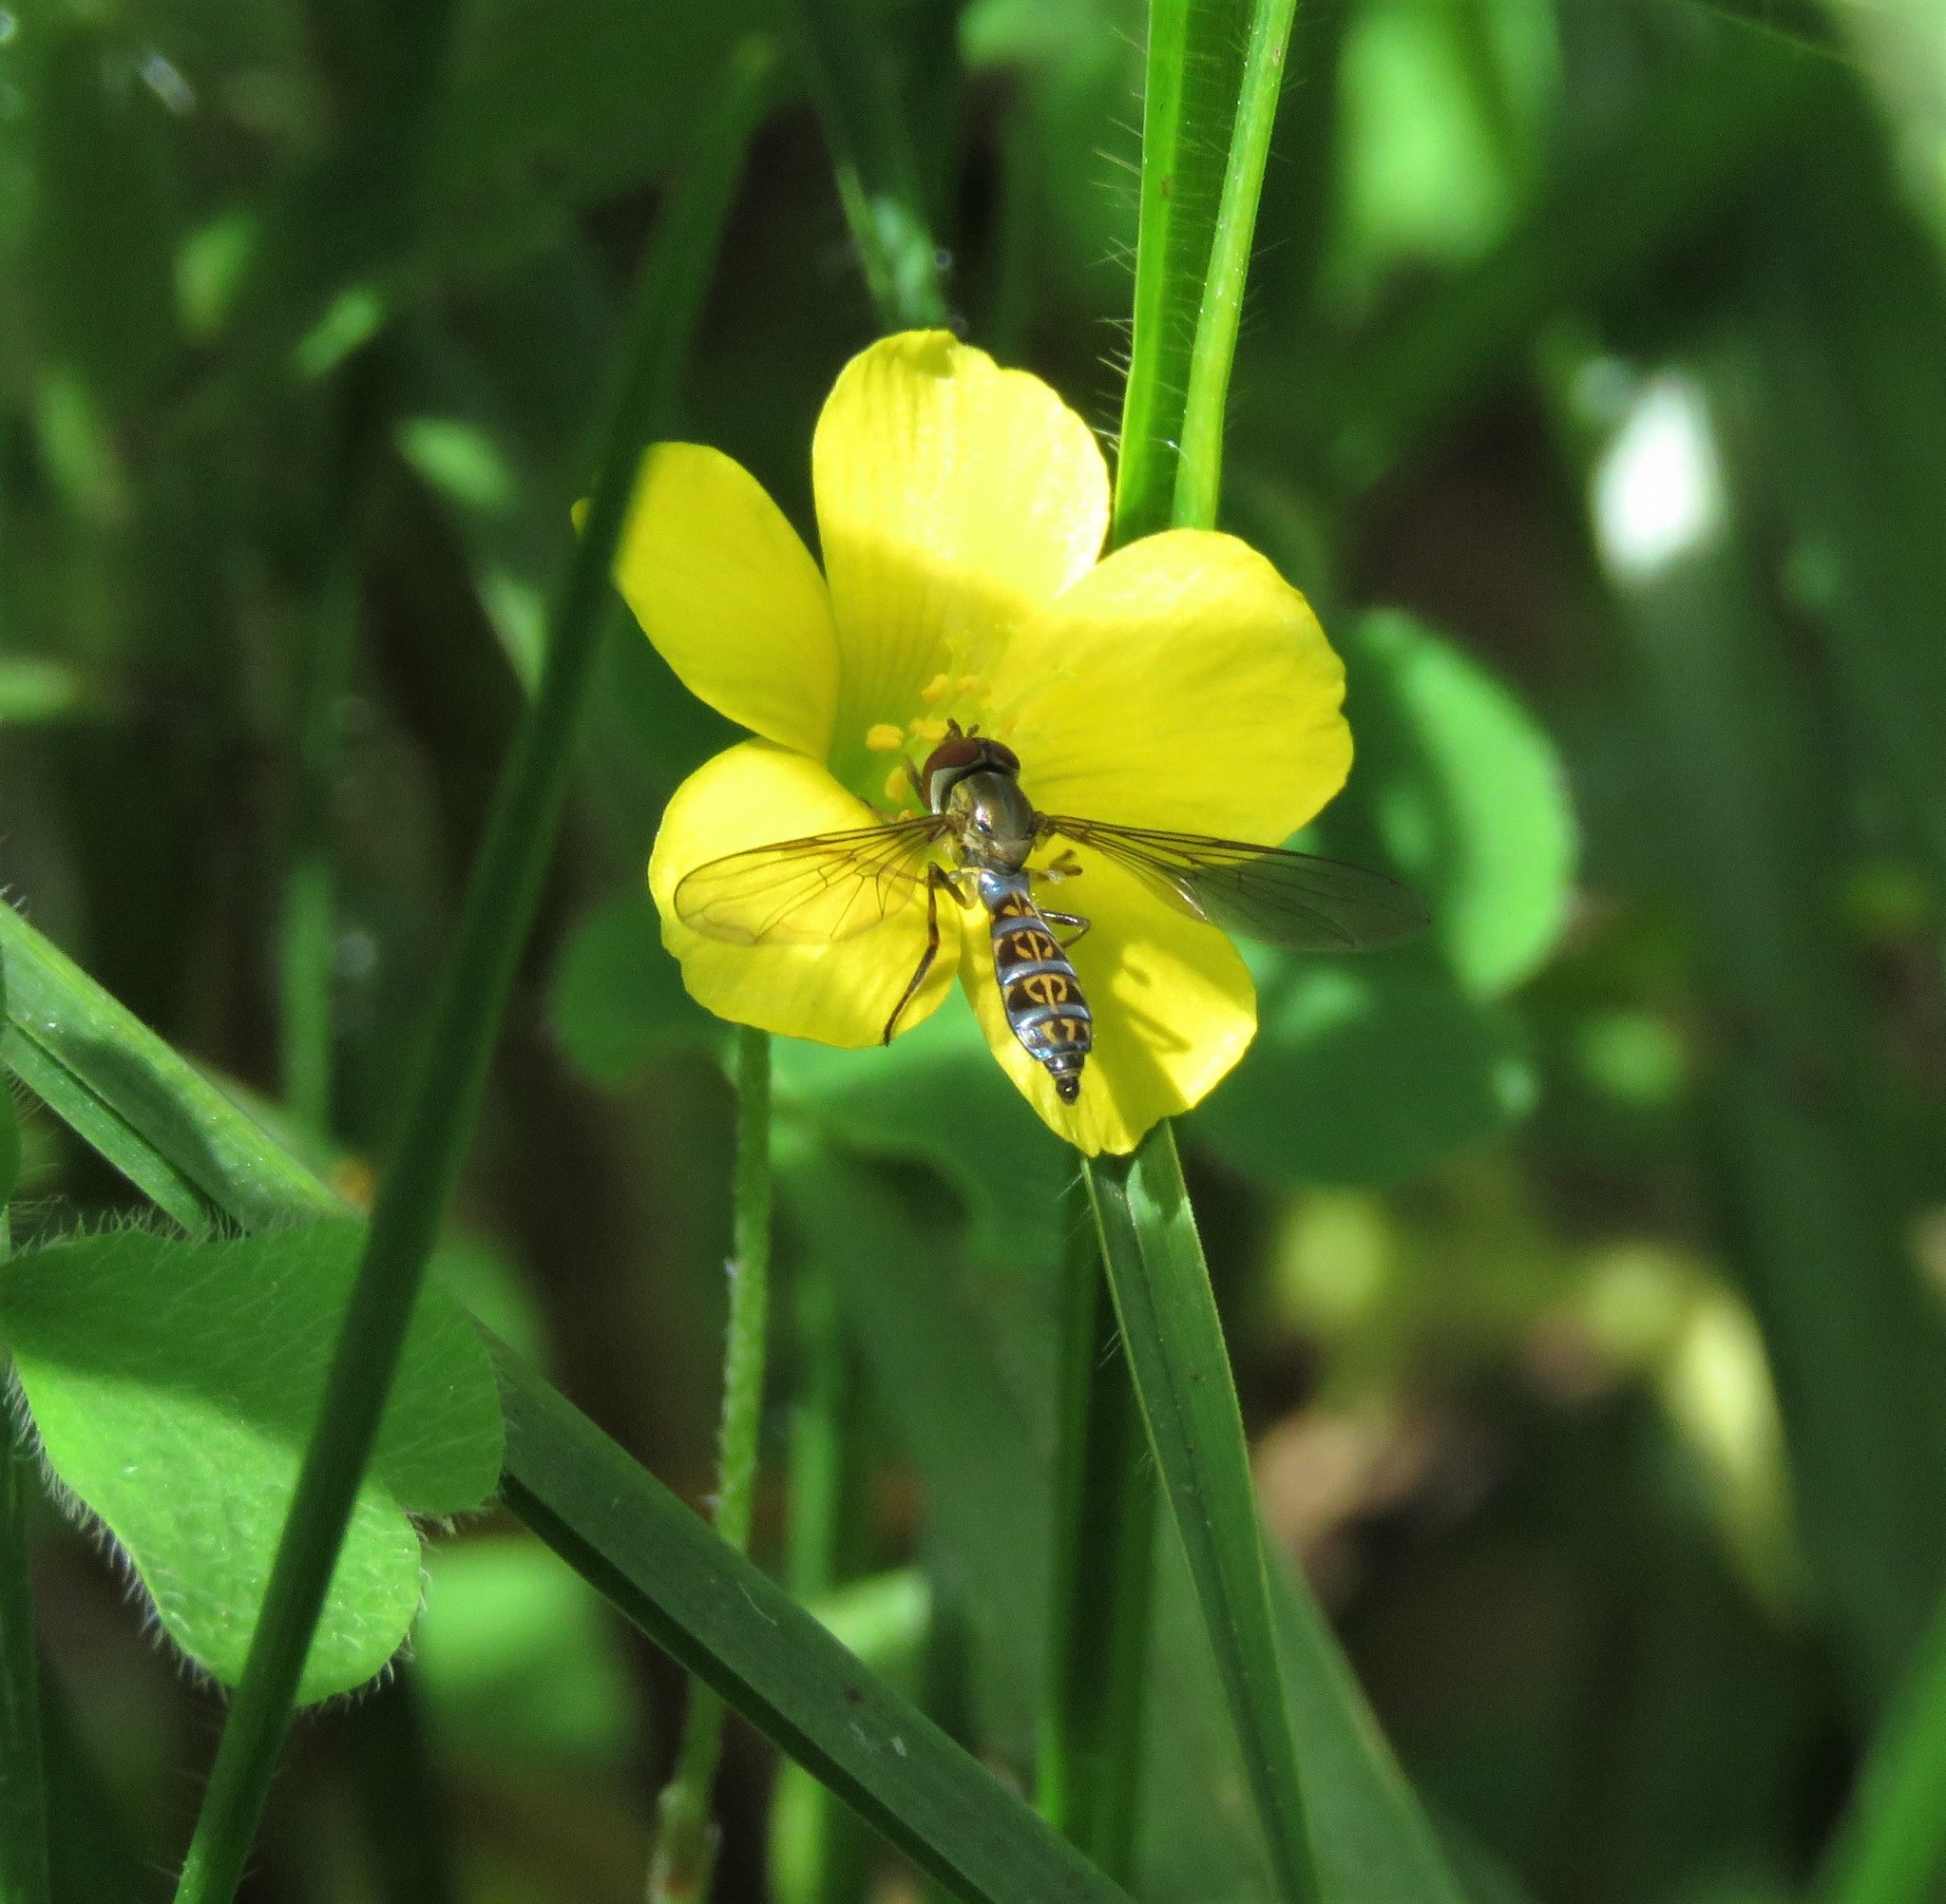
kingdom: Plantae
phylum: Tracheophyta
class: Magnoliopsida
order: Oxalidales
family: Oxalidaceae
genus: Oxalis
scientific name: Oxalis corniculata
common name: Procumbent yellow-sorrel
